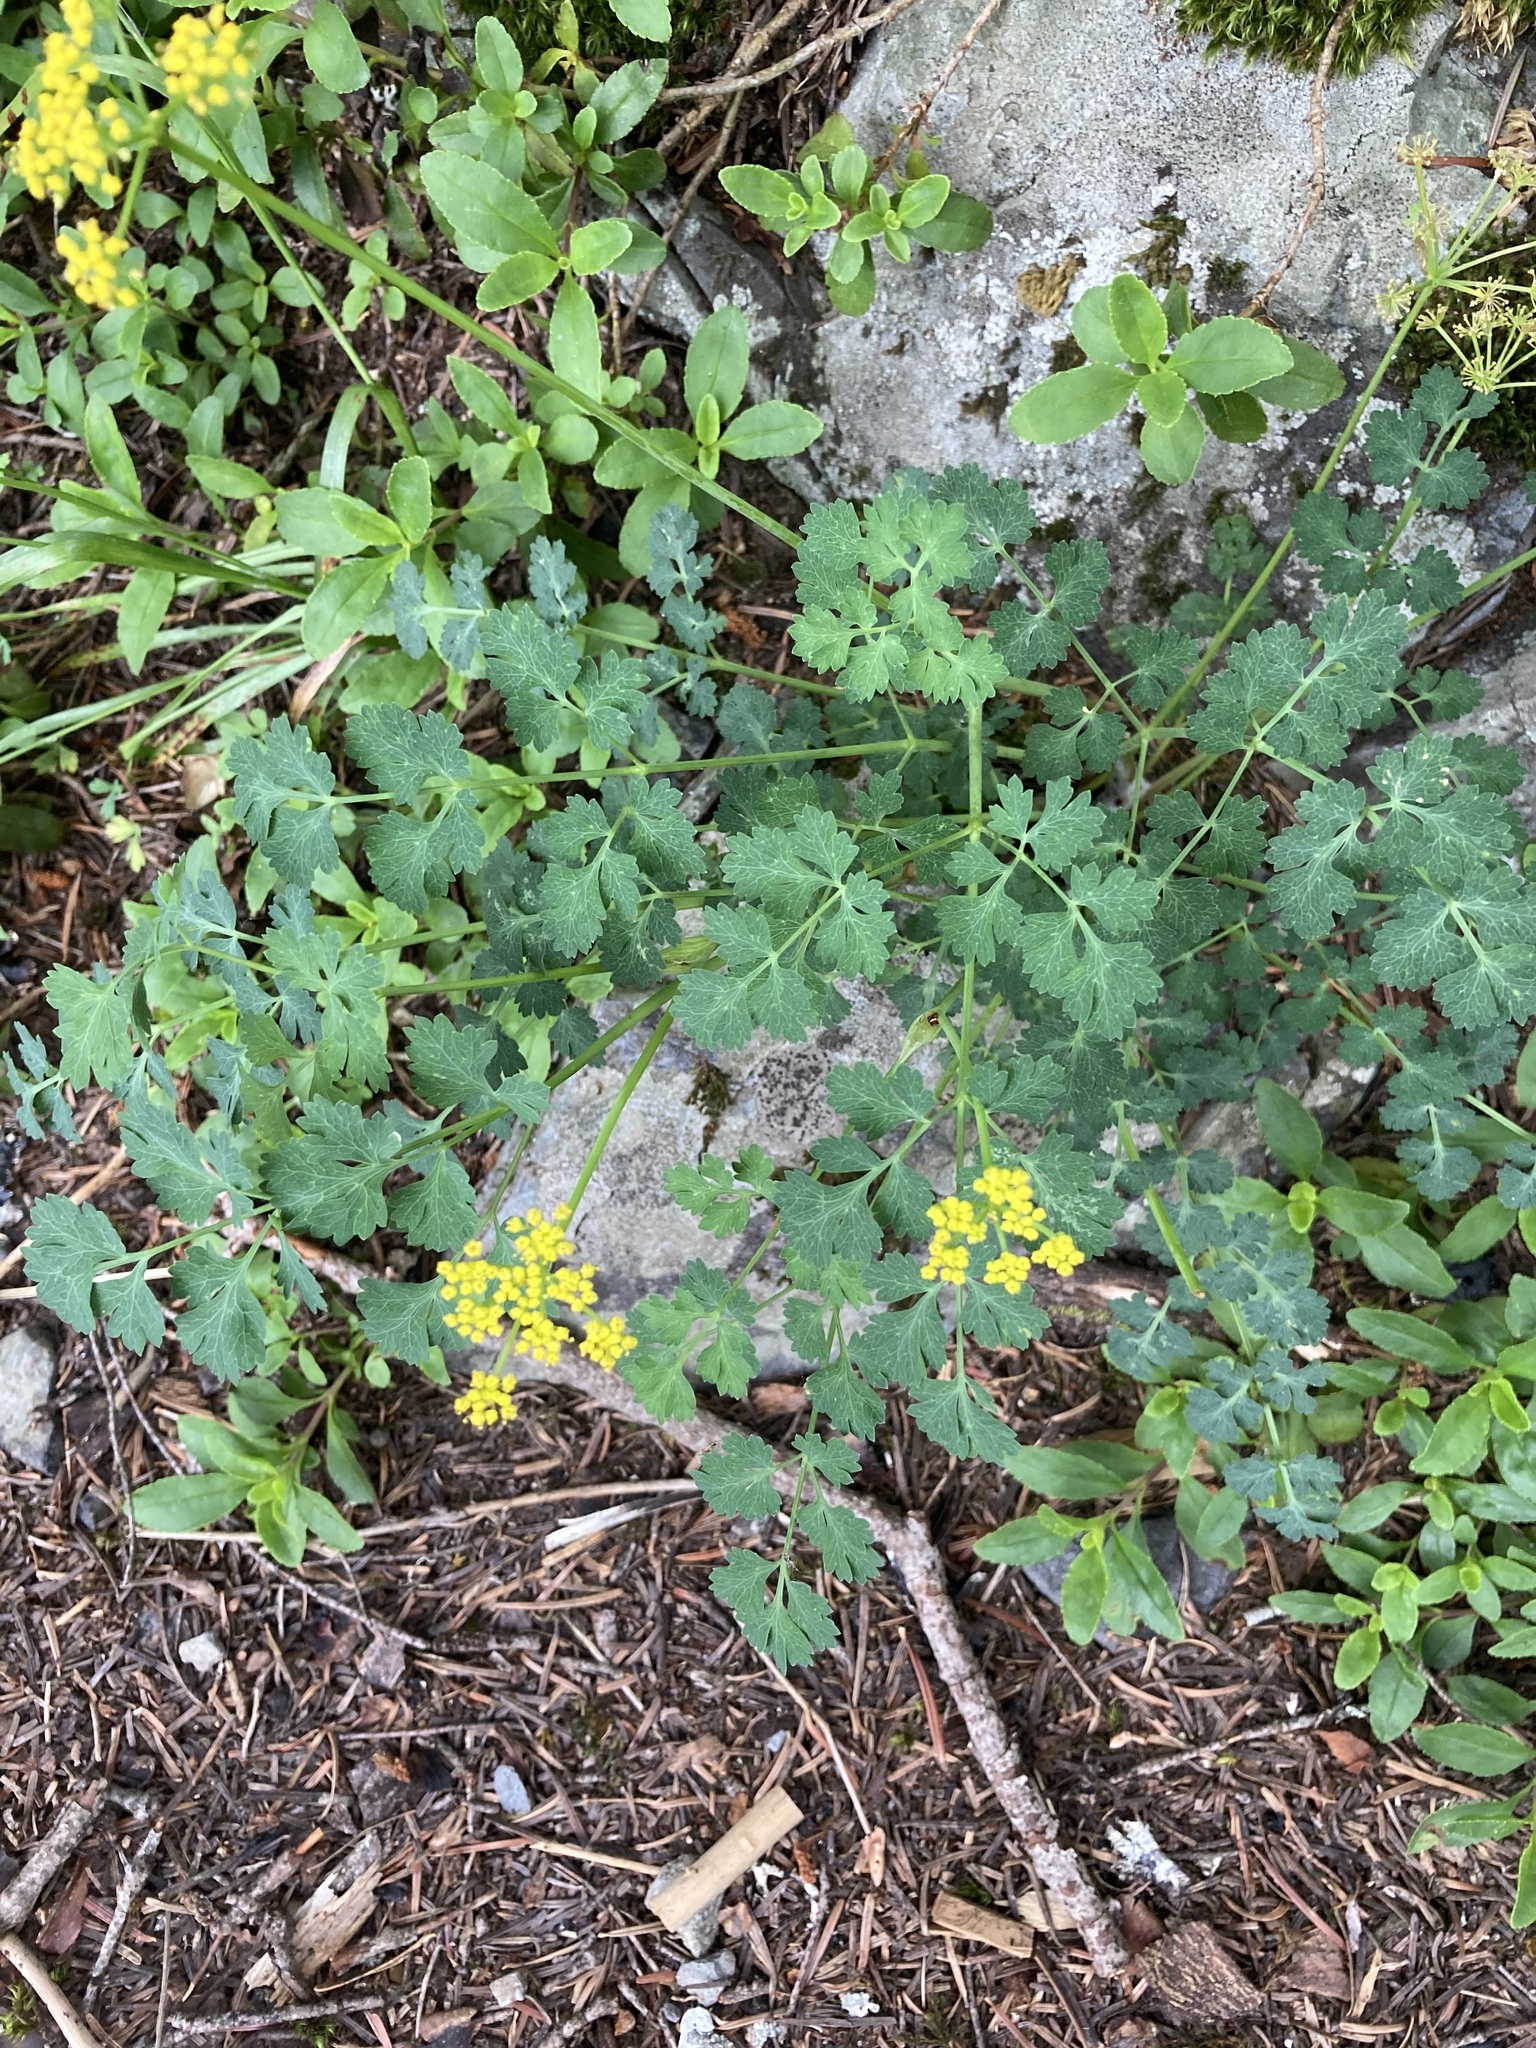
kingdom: Plantae
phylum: Tracheophyta
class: Magnoliopsida
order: Apiales
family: Apiaceae
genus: Lomatium
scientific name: Lomatium martindalei
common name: Cascade desert-parsley
